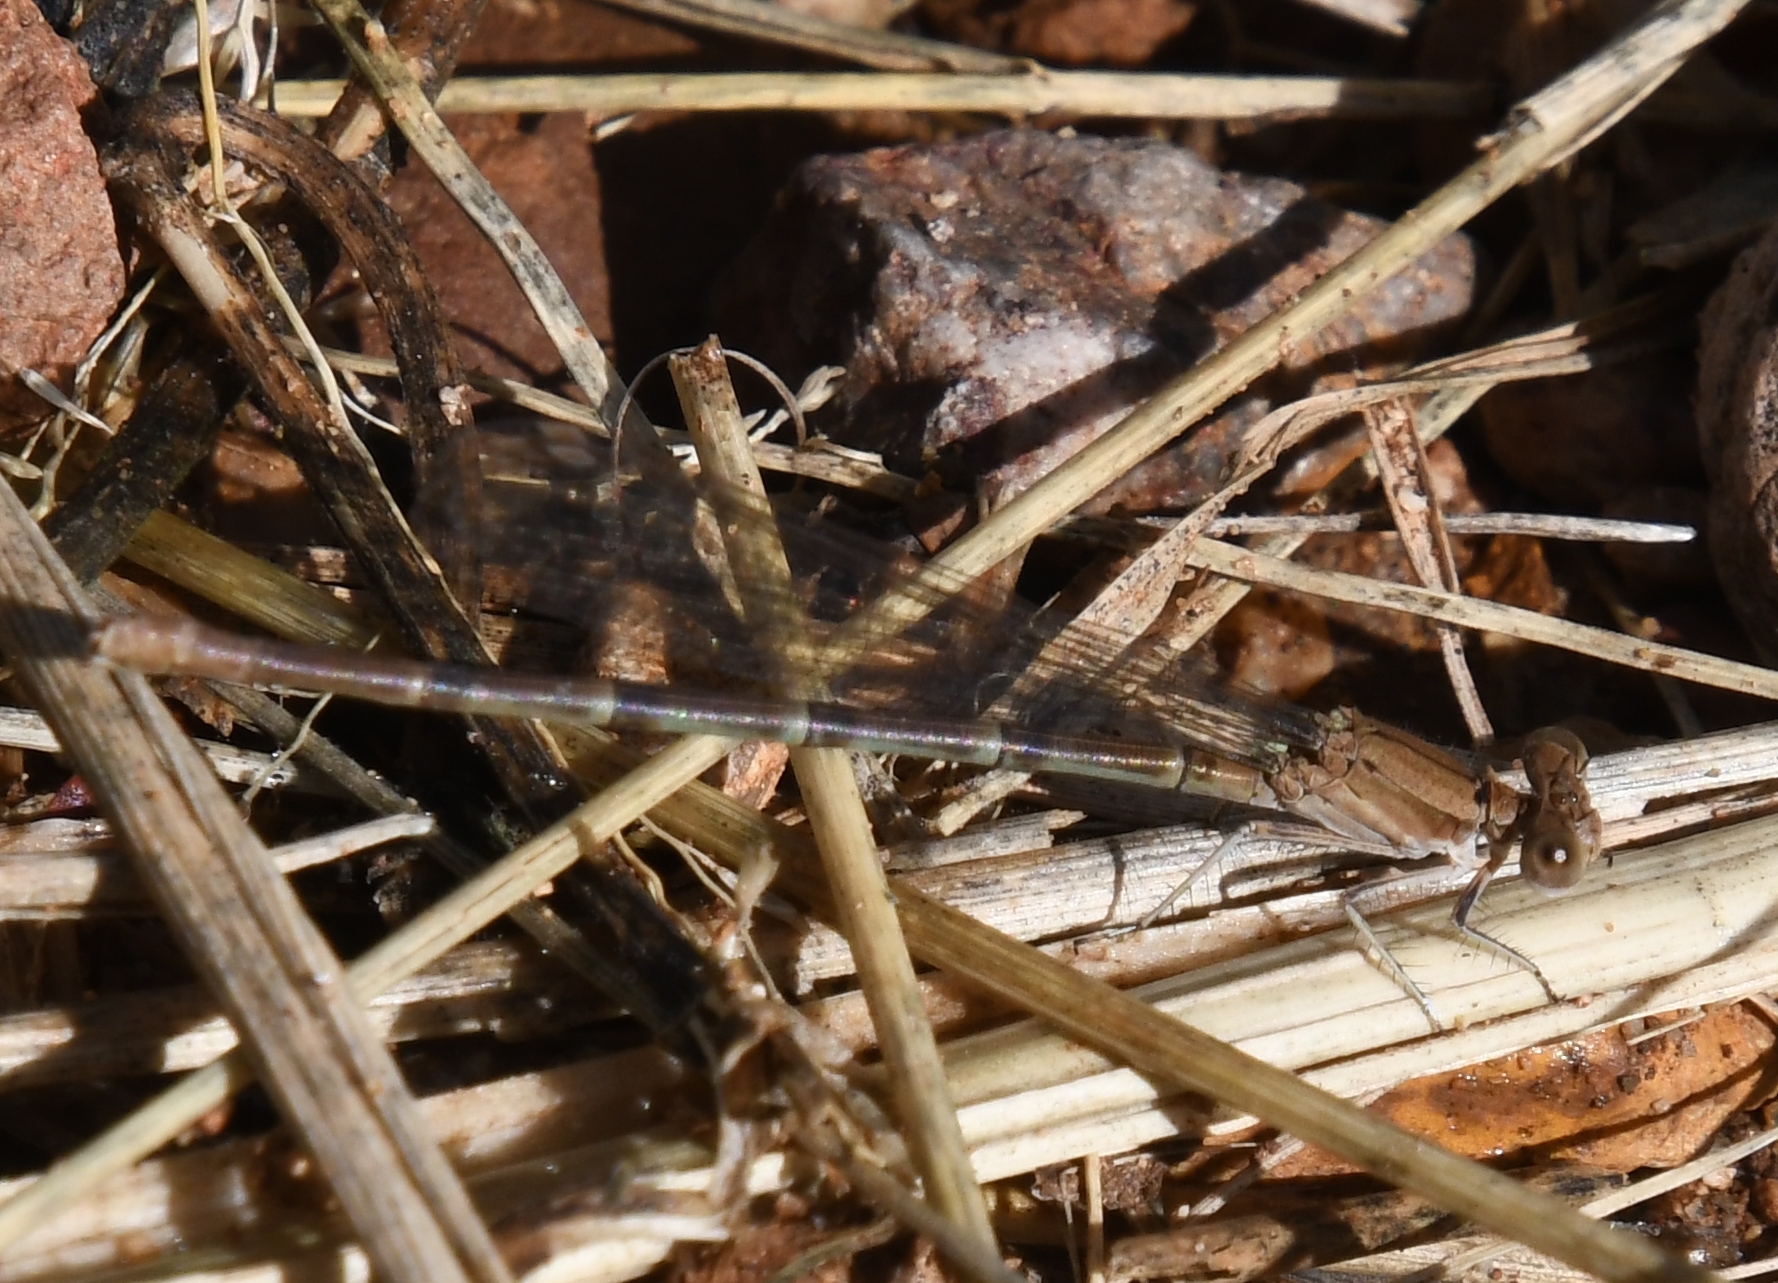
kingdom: Animalia
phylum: Arthropoda
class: Insecta
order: Odonata
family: Coenagrionidae
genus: Argia
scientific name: Argia sedula
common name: Blue-ringed dancer
